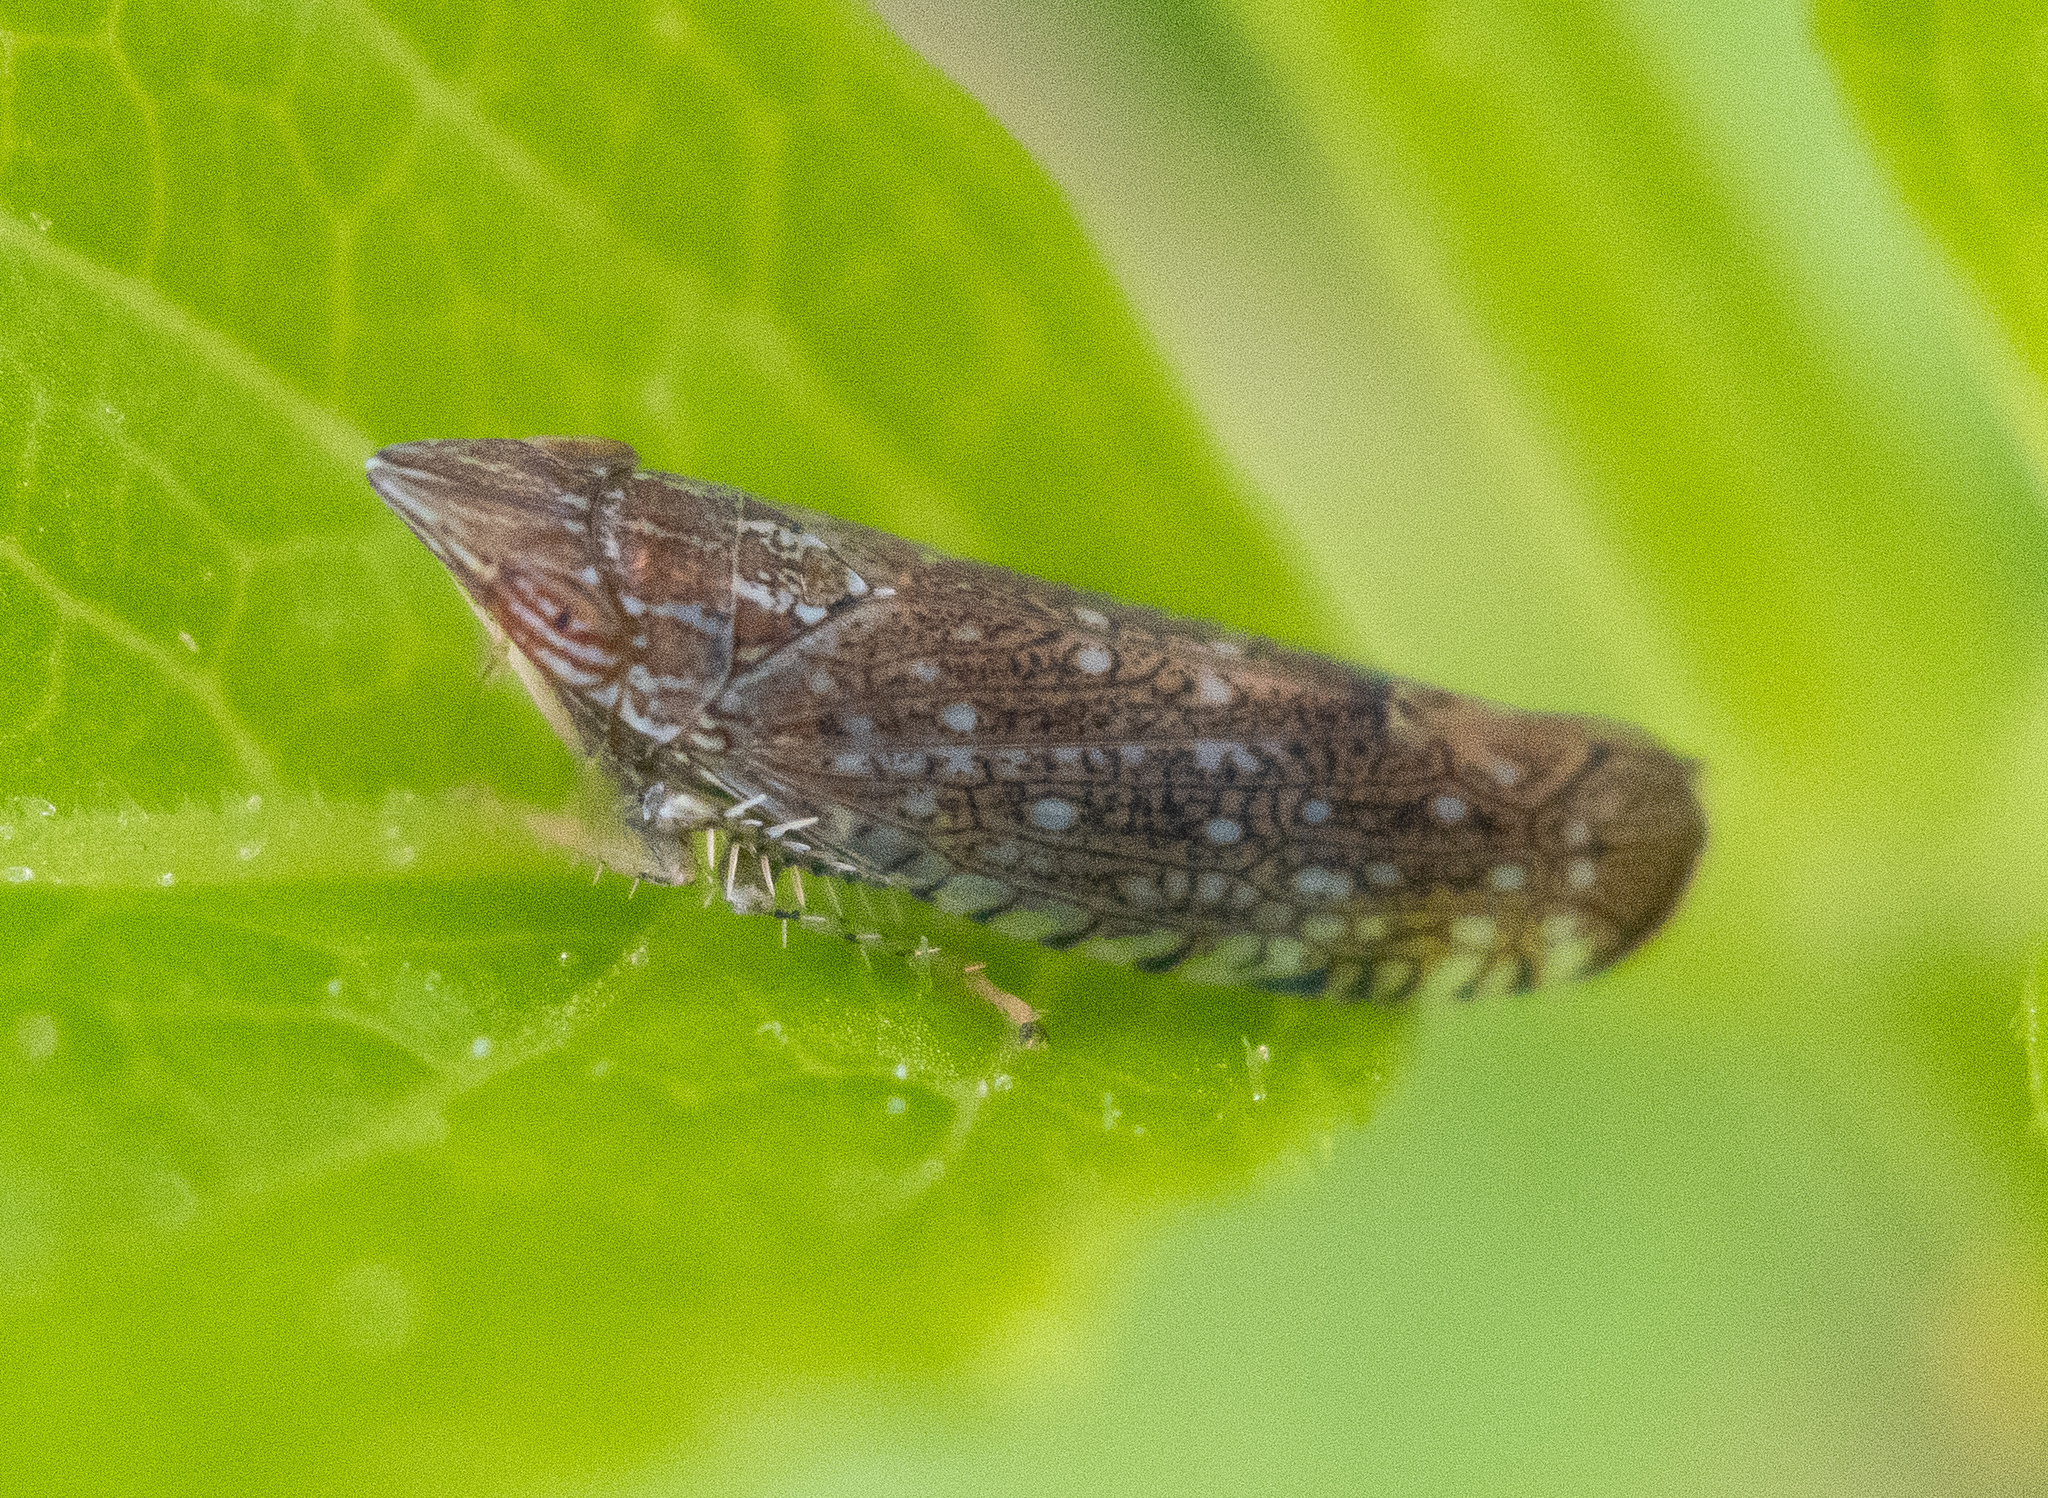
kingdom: Animalia
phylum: Arthropoda
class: Insecta
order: Hemiptera
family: Cicadellidae
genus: Scaphytopius
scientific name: Scaphytopius acutus
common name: The sharp-nosed leafhopper
